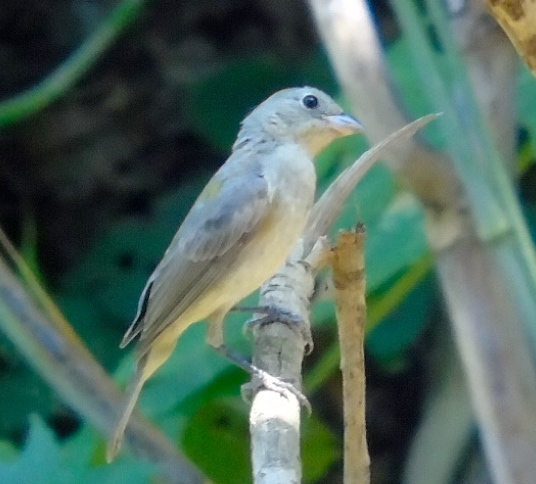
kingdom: Animalia
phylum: Chordata
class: Aves
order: Passeriformes
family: Cardinalidae
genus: Passerina
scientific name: Passerina ciris
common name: Painted bunting
